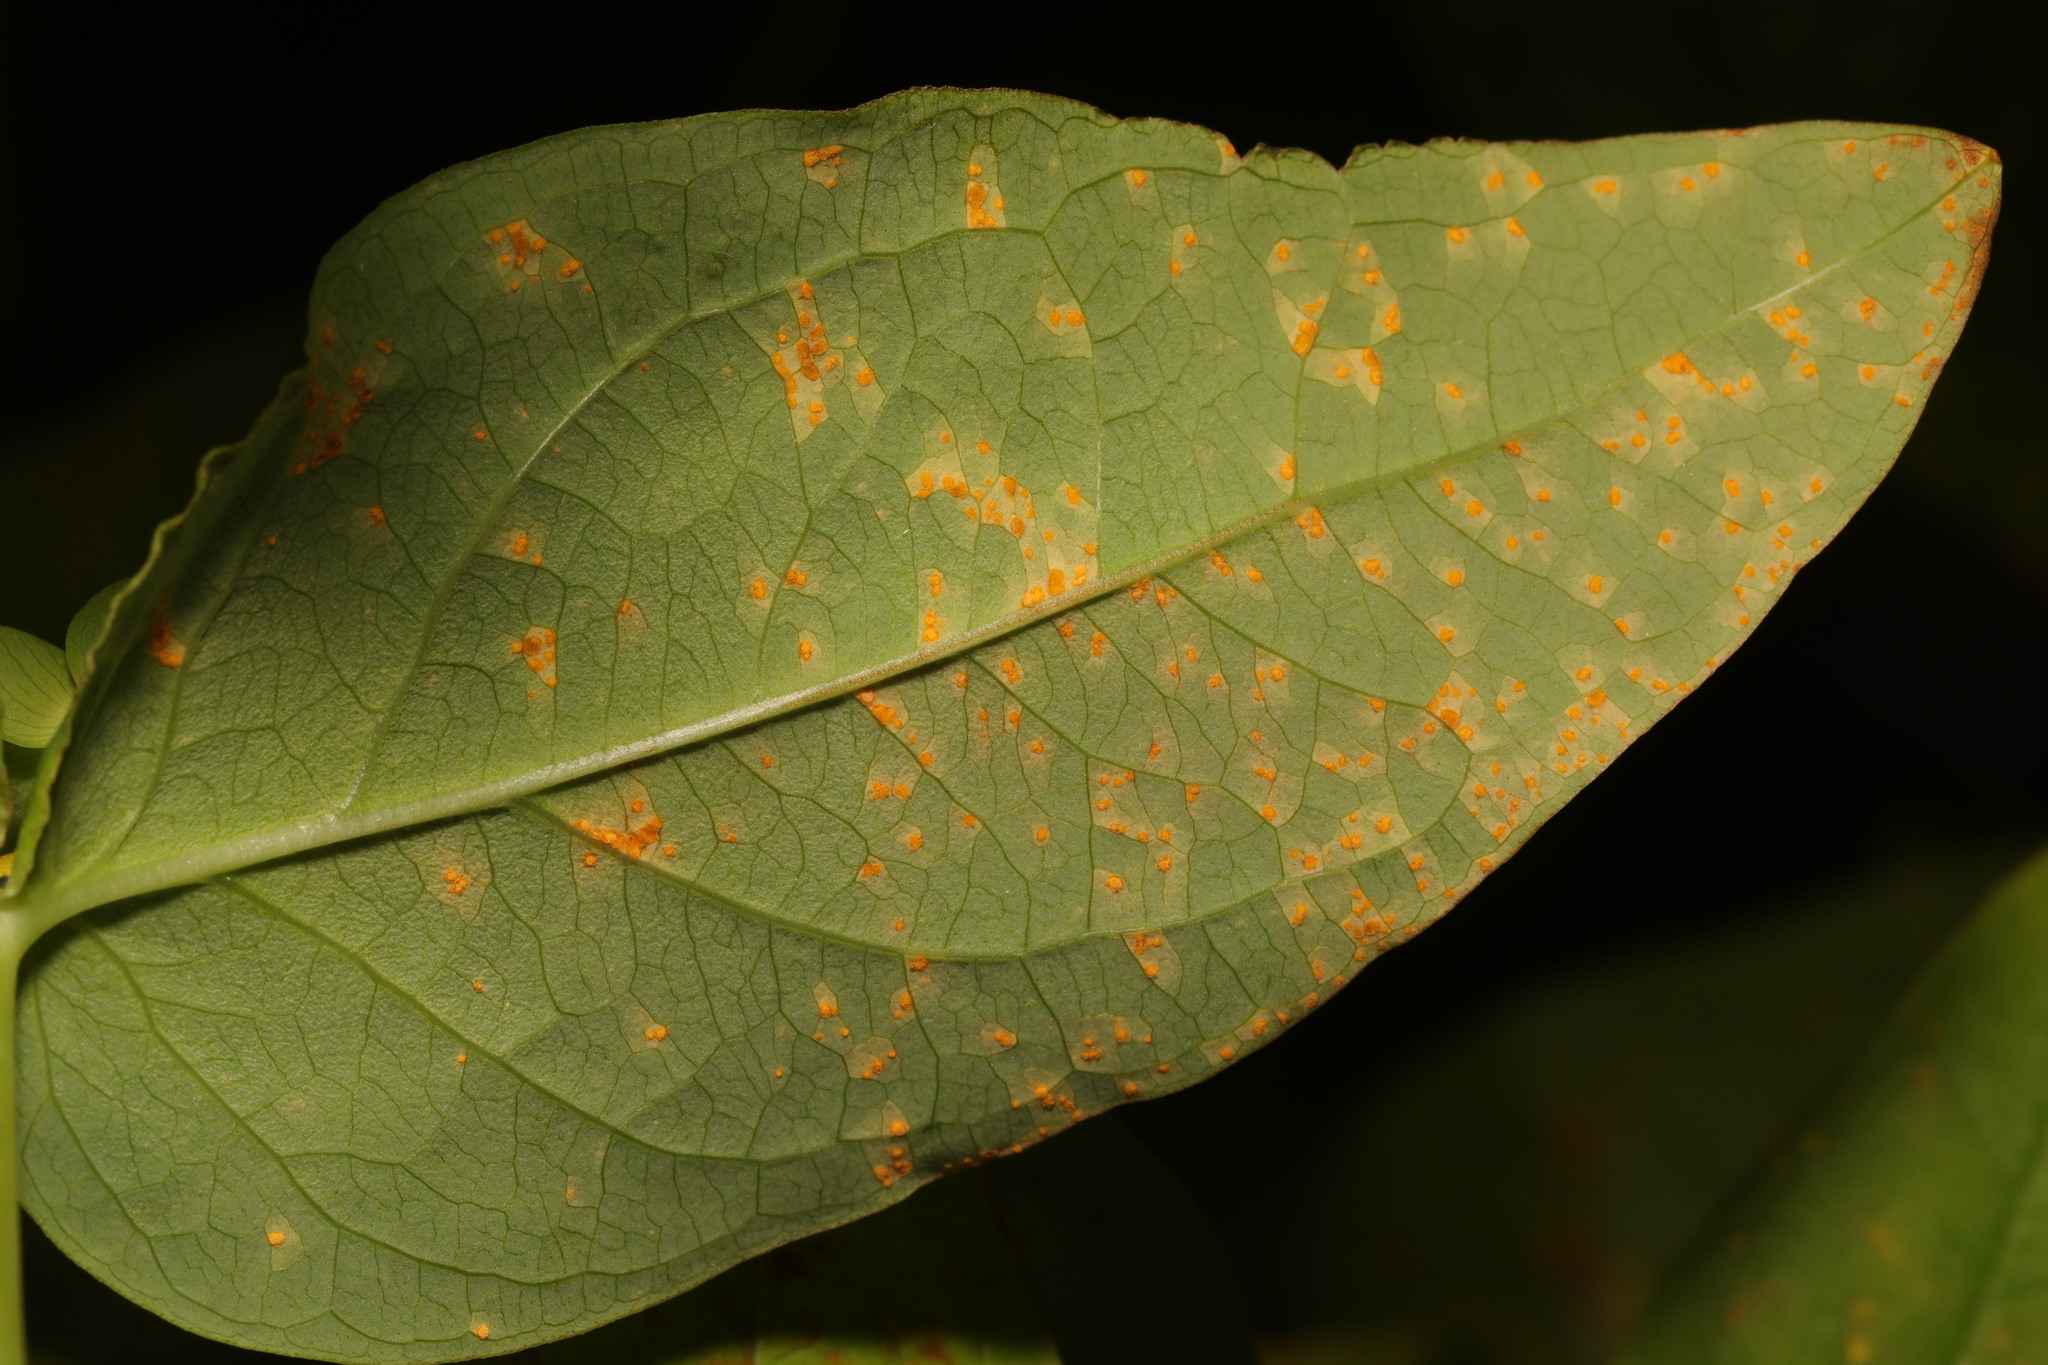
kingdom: Fungi
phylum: Basidiomycota
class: Pucciniomycetes
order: Pucciniales
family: Melampsoraceae
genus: Melampsora
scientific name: Melampsora
